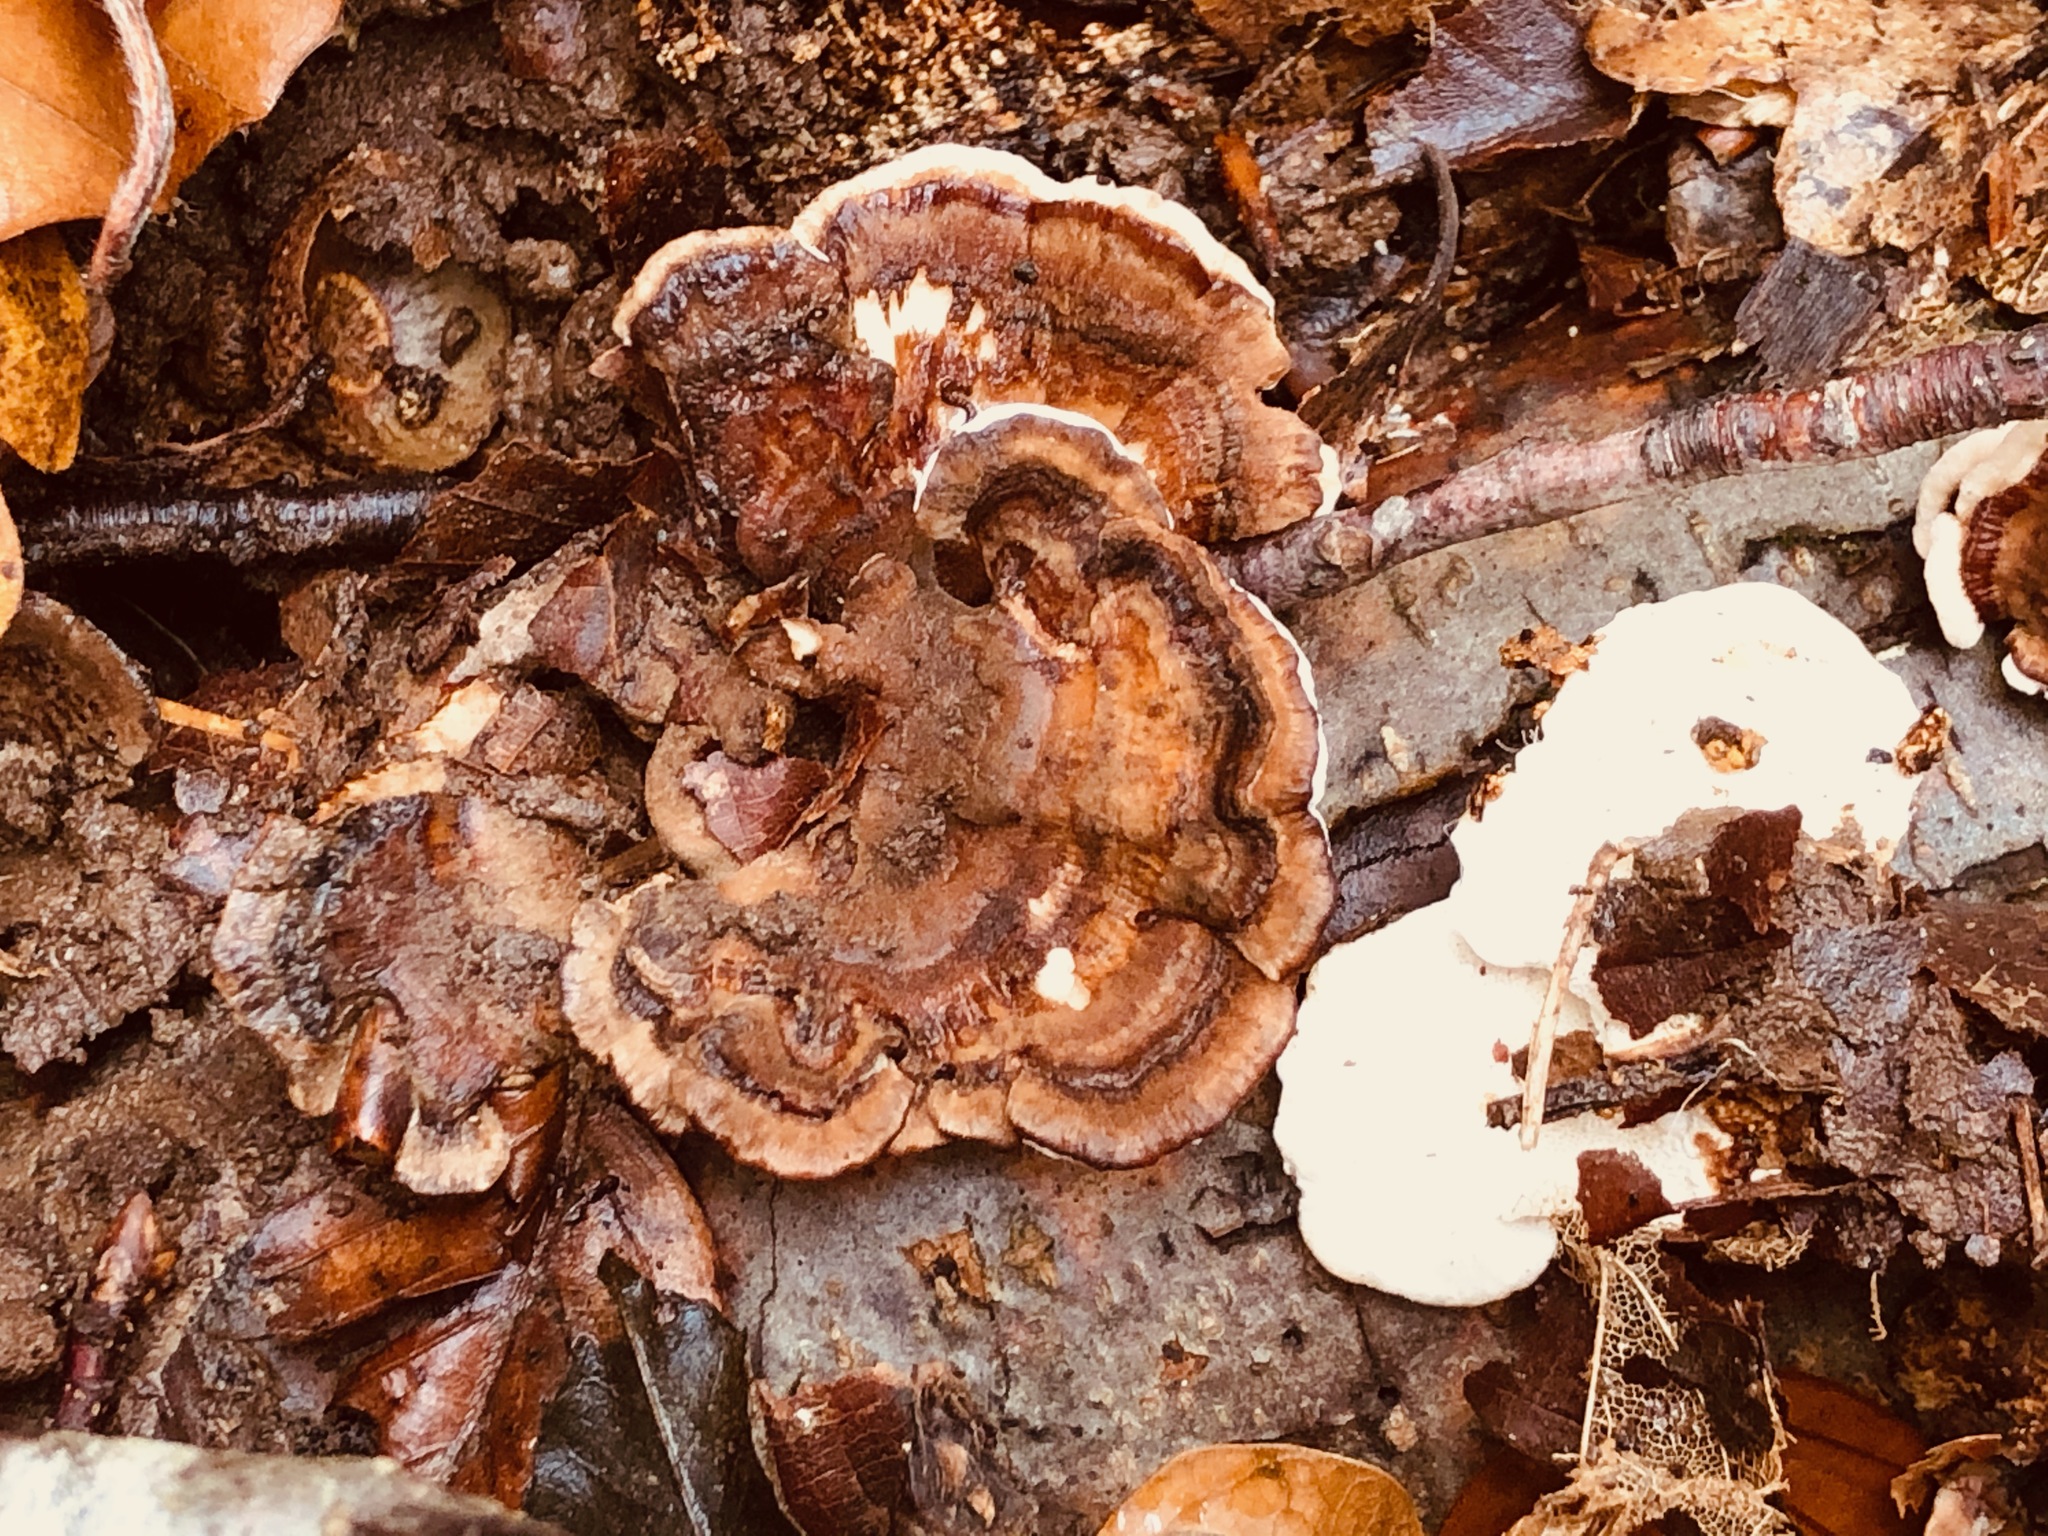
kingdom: Fungi
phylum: Basidiomycota
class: Agaricomycetes
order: Polyporales
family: Polyporaceae
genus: Trametes
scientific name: Trametes versicolor
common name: Turkeytail
